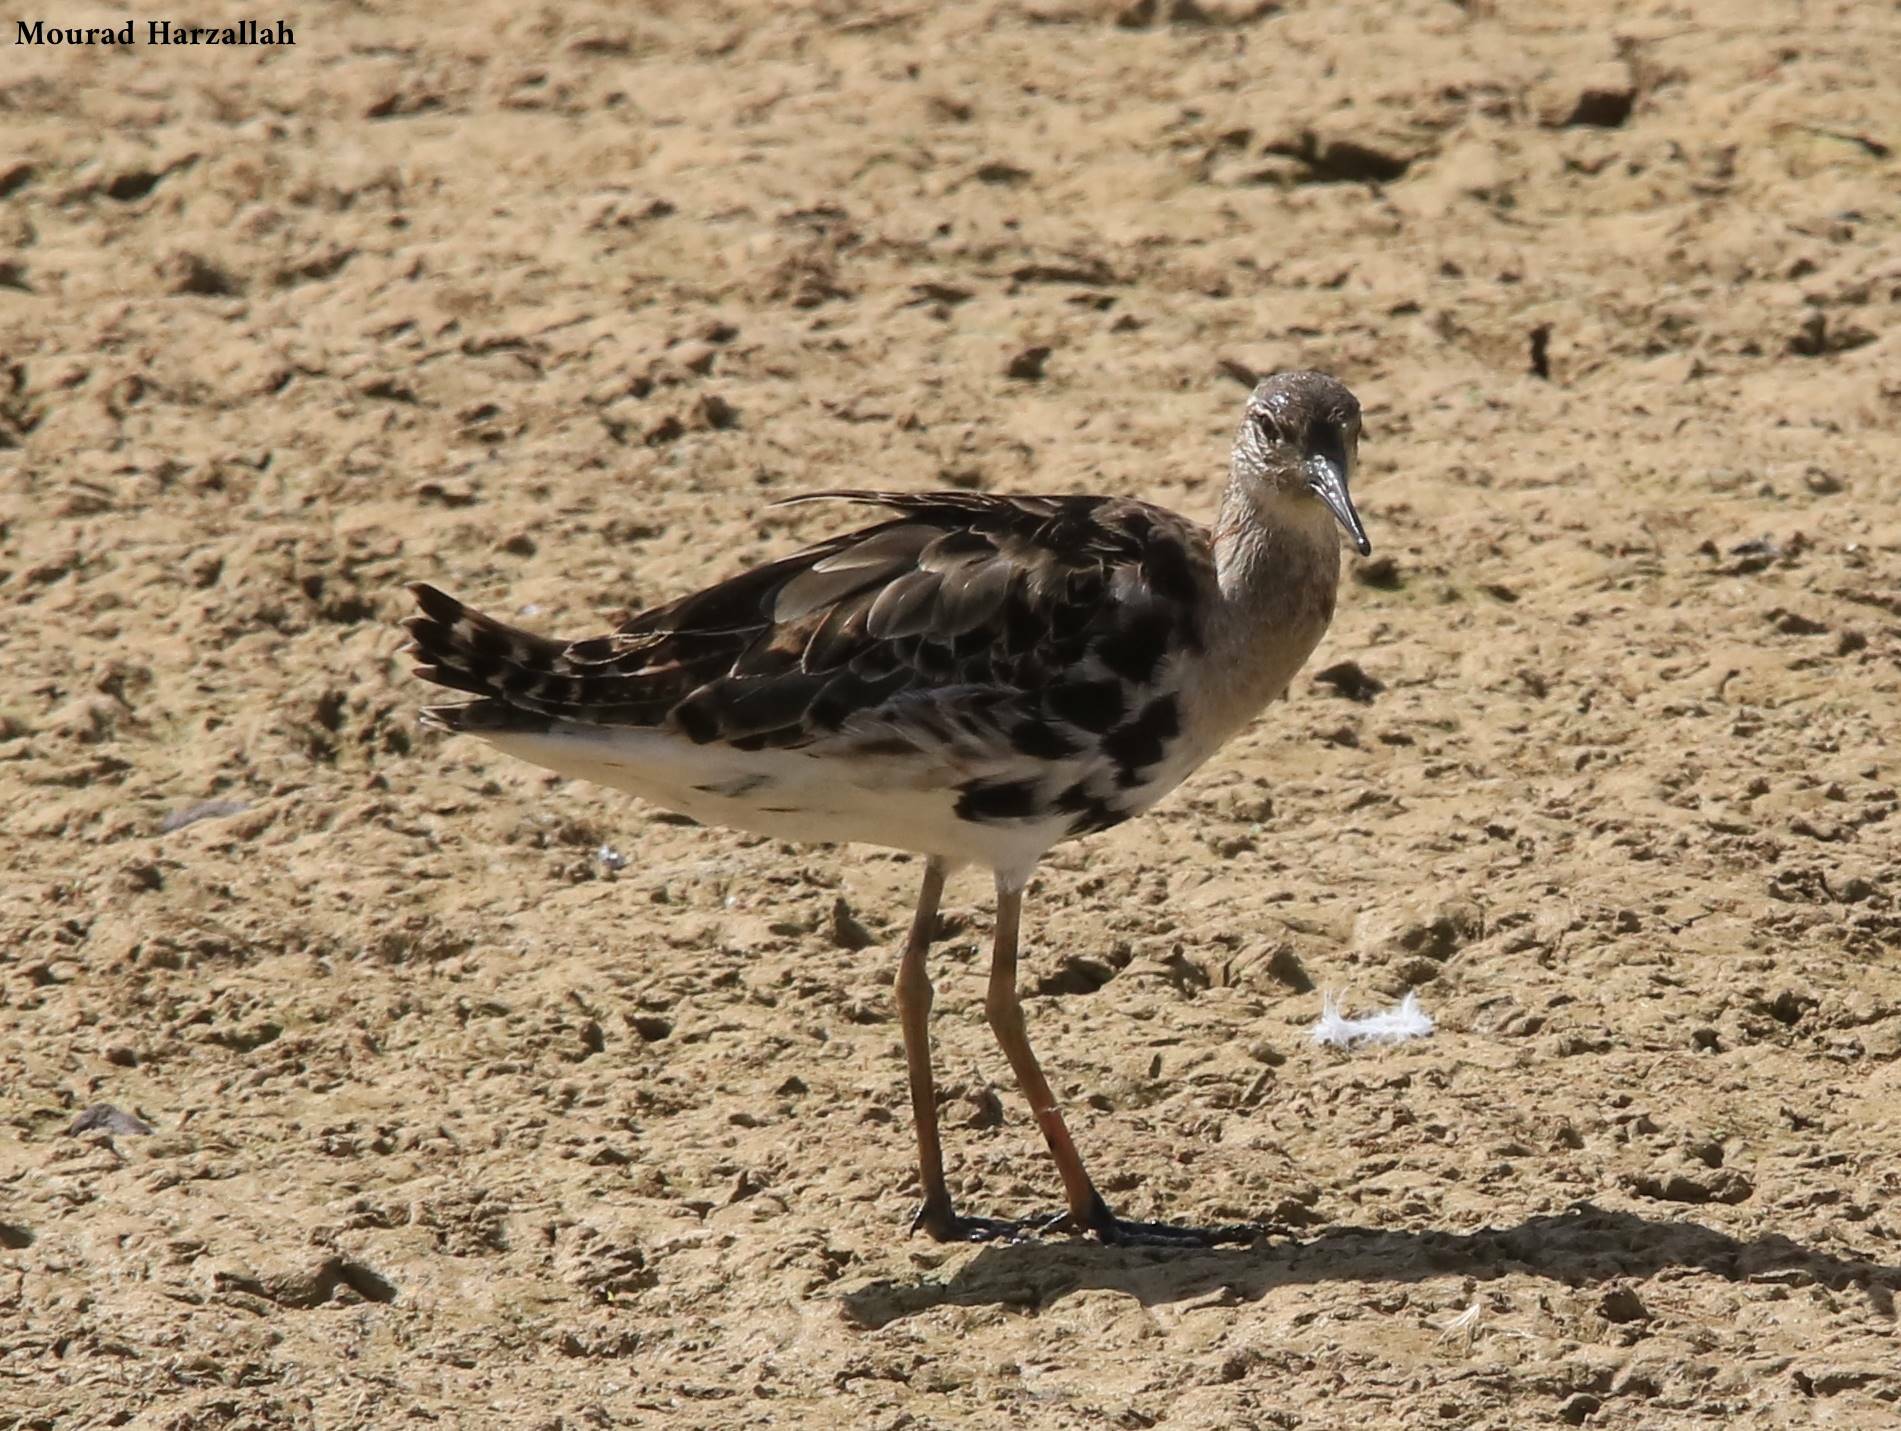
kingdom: Animalia
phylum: Chordata
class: Aves
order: Charadriiformes
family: Scolopacidae
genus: Calidris
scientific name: Calidris pugnax
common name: Ruff
